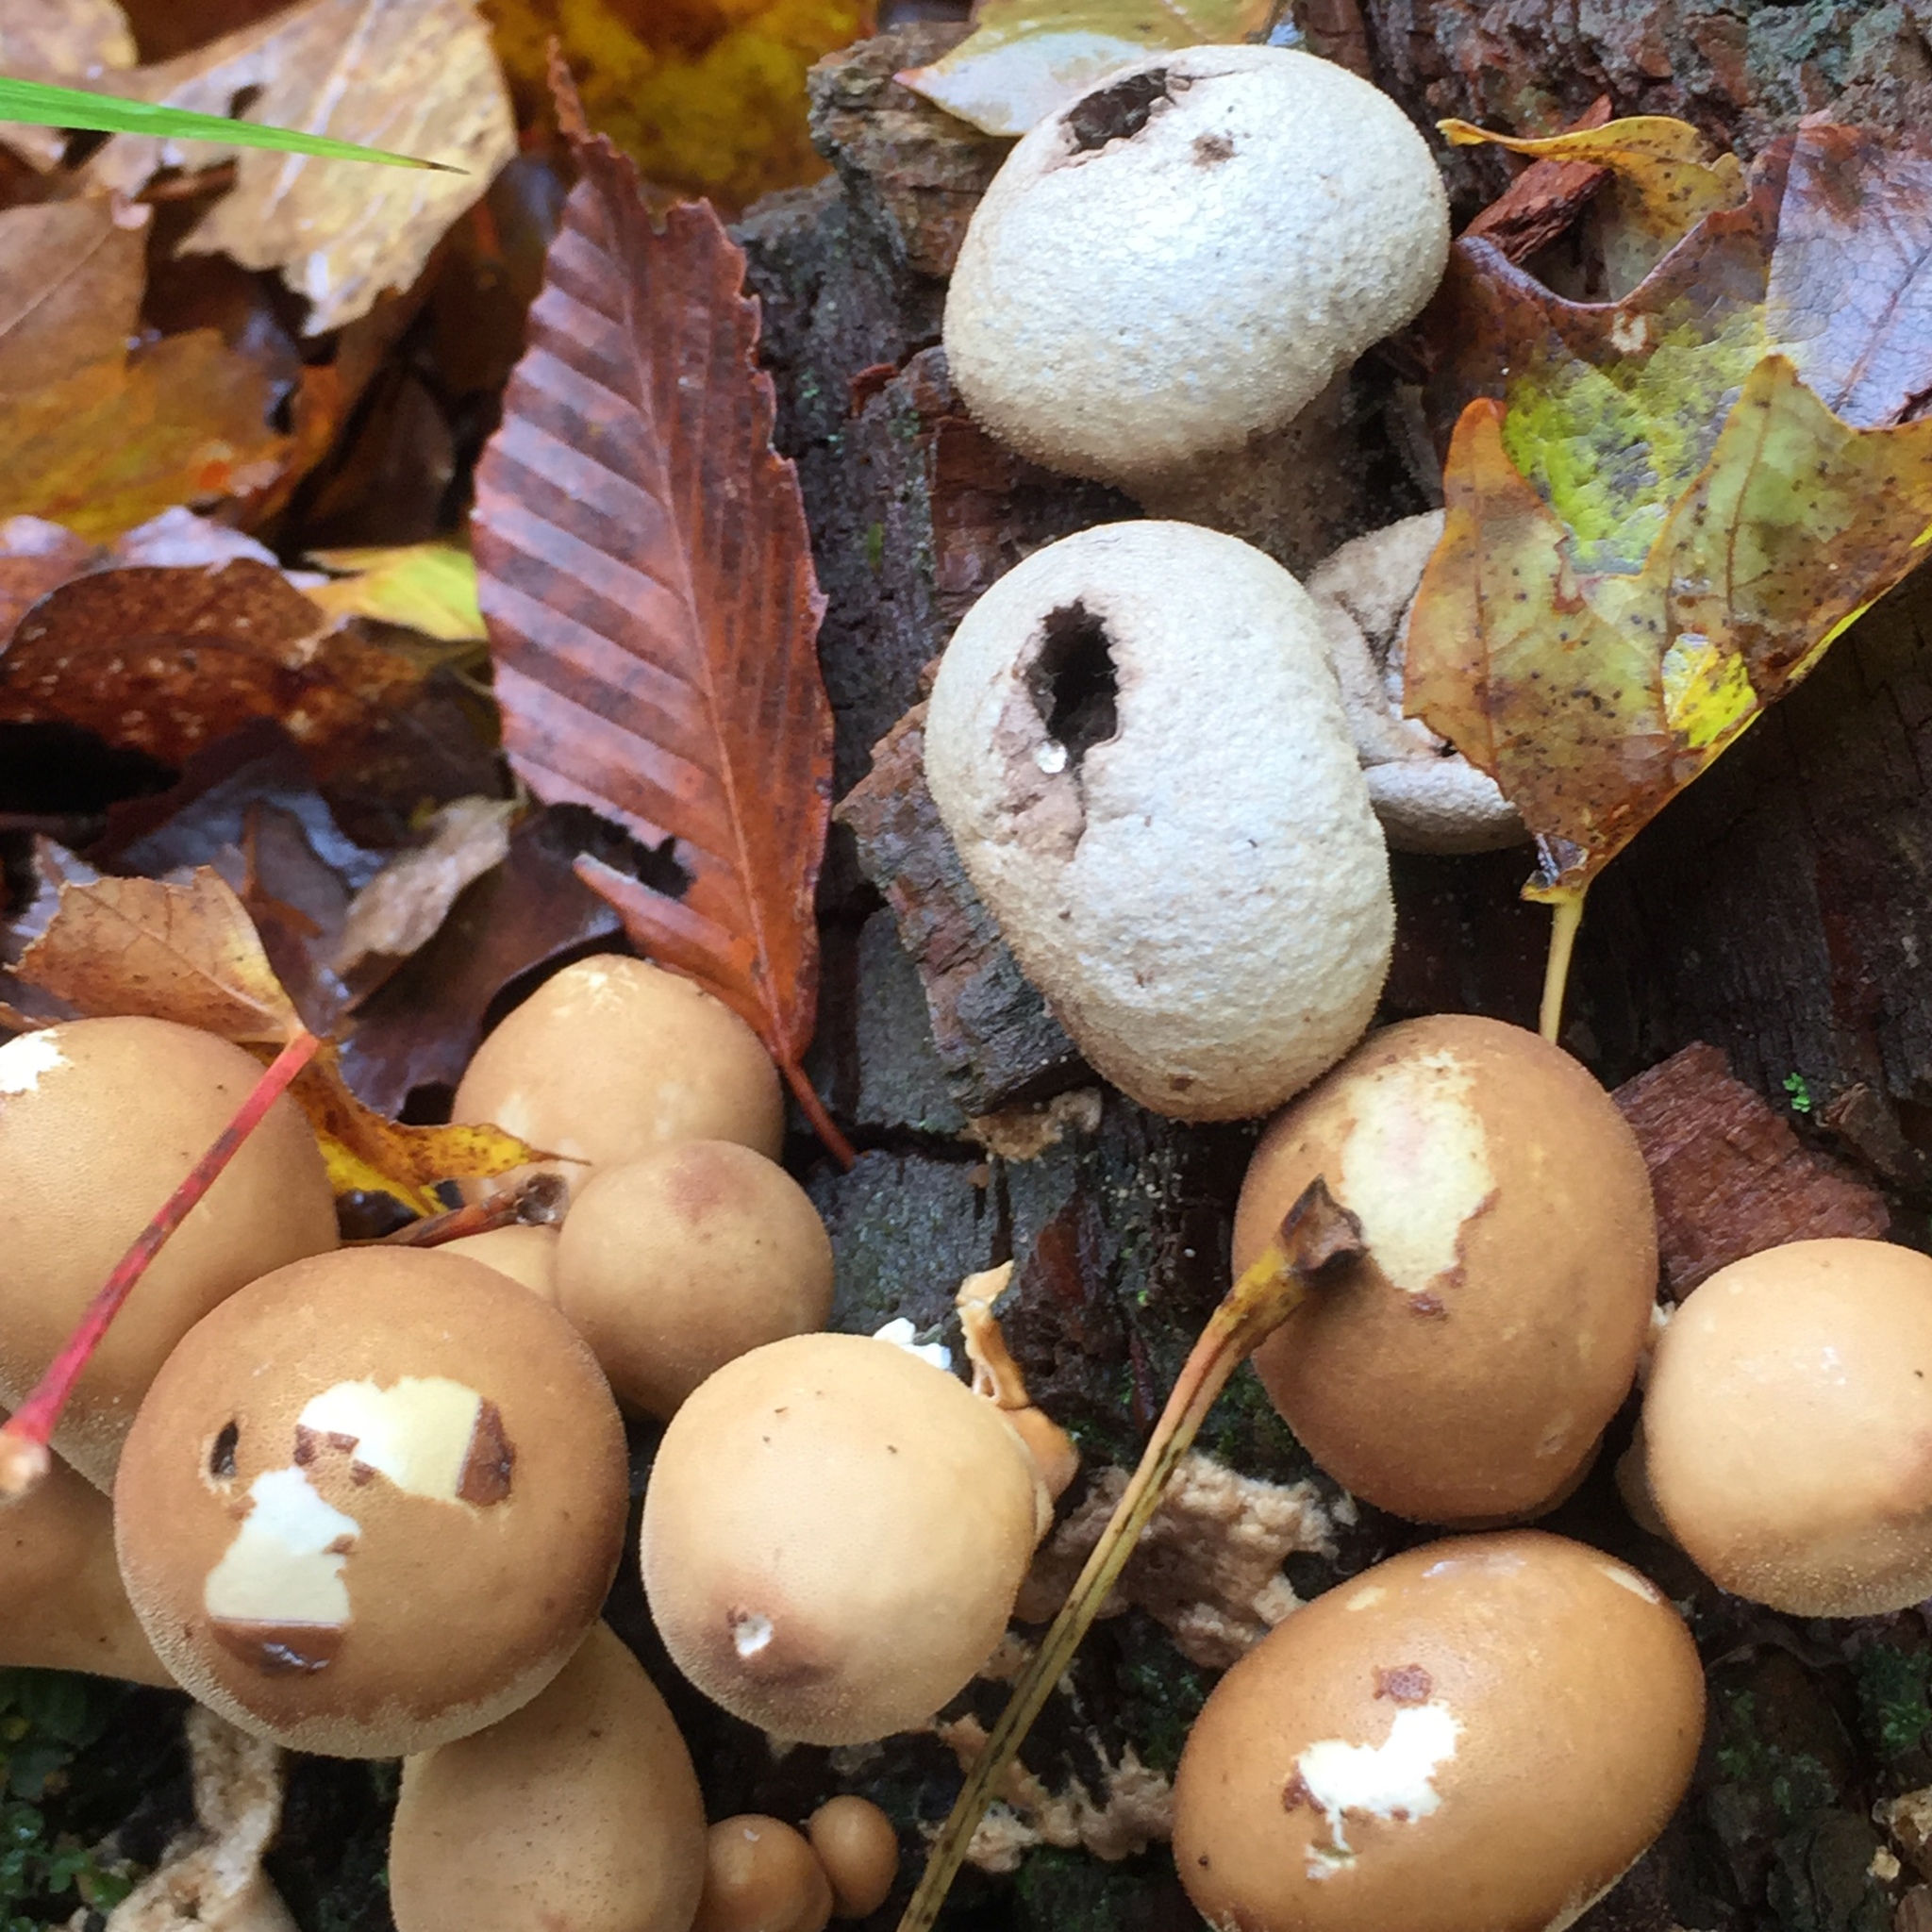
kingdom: Fungi
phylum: Basidiomycota
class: Agaricomycetes
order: Agaricales
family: Lycoperdaceae
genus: Apioperdon
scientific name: Apioperdon pyriforme
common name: Pear-shaped puffball
